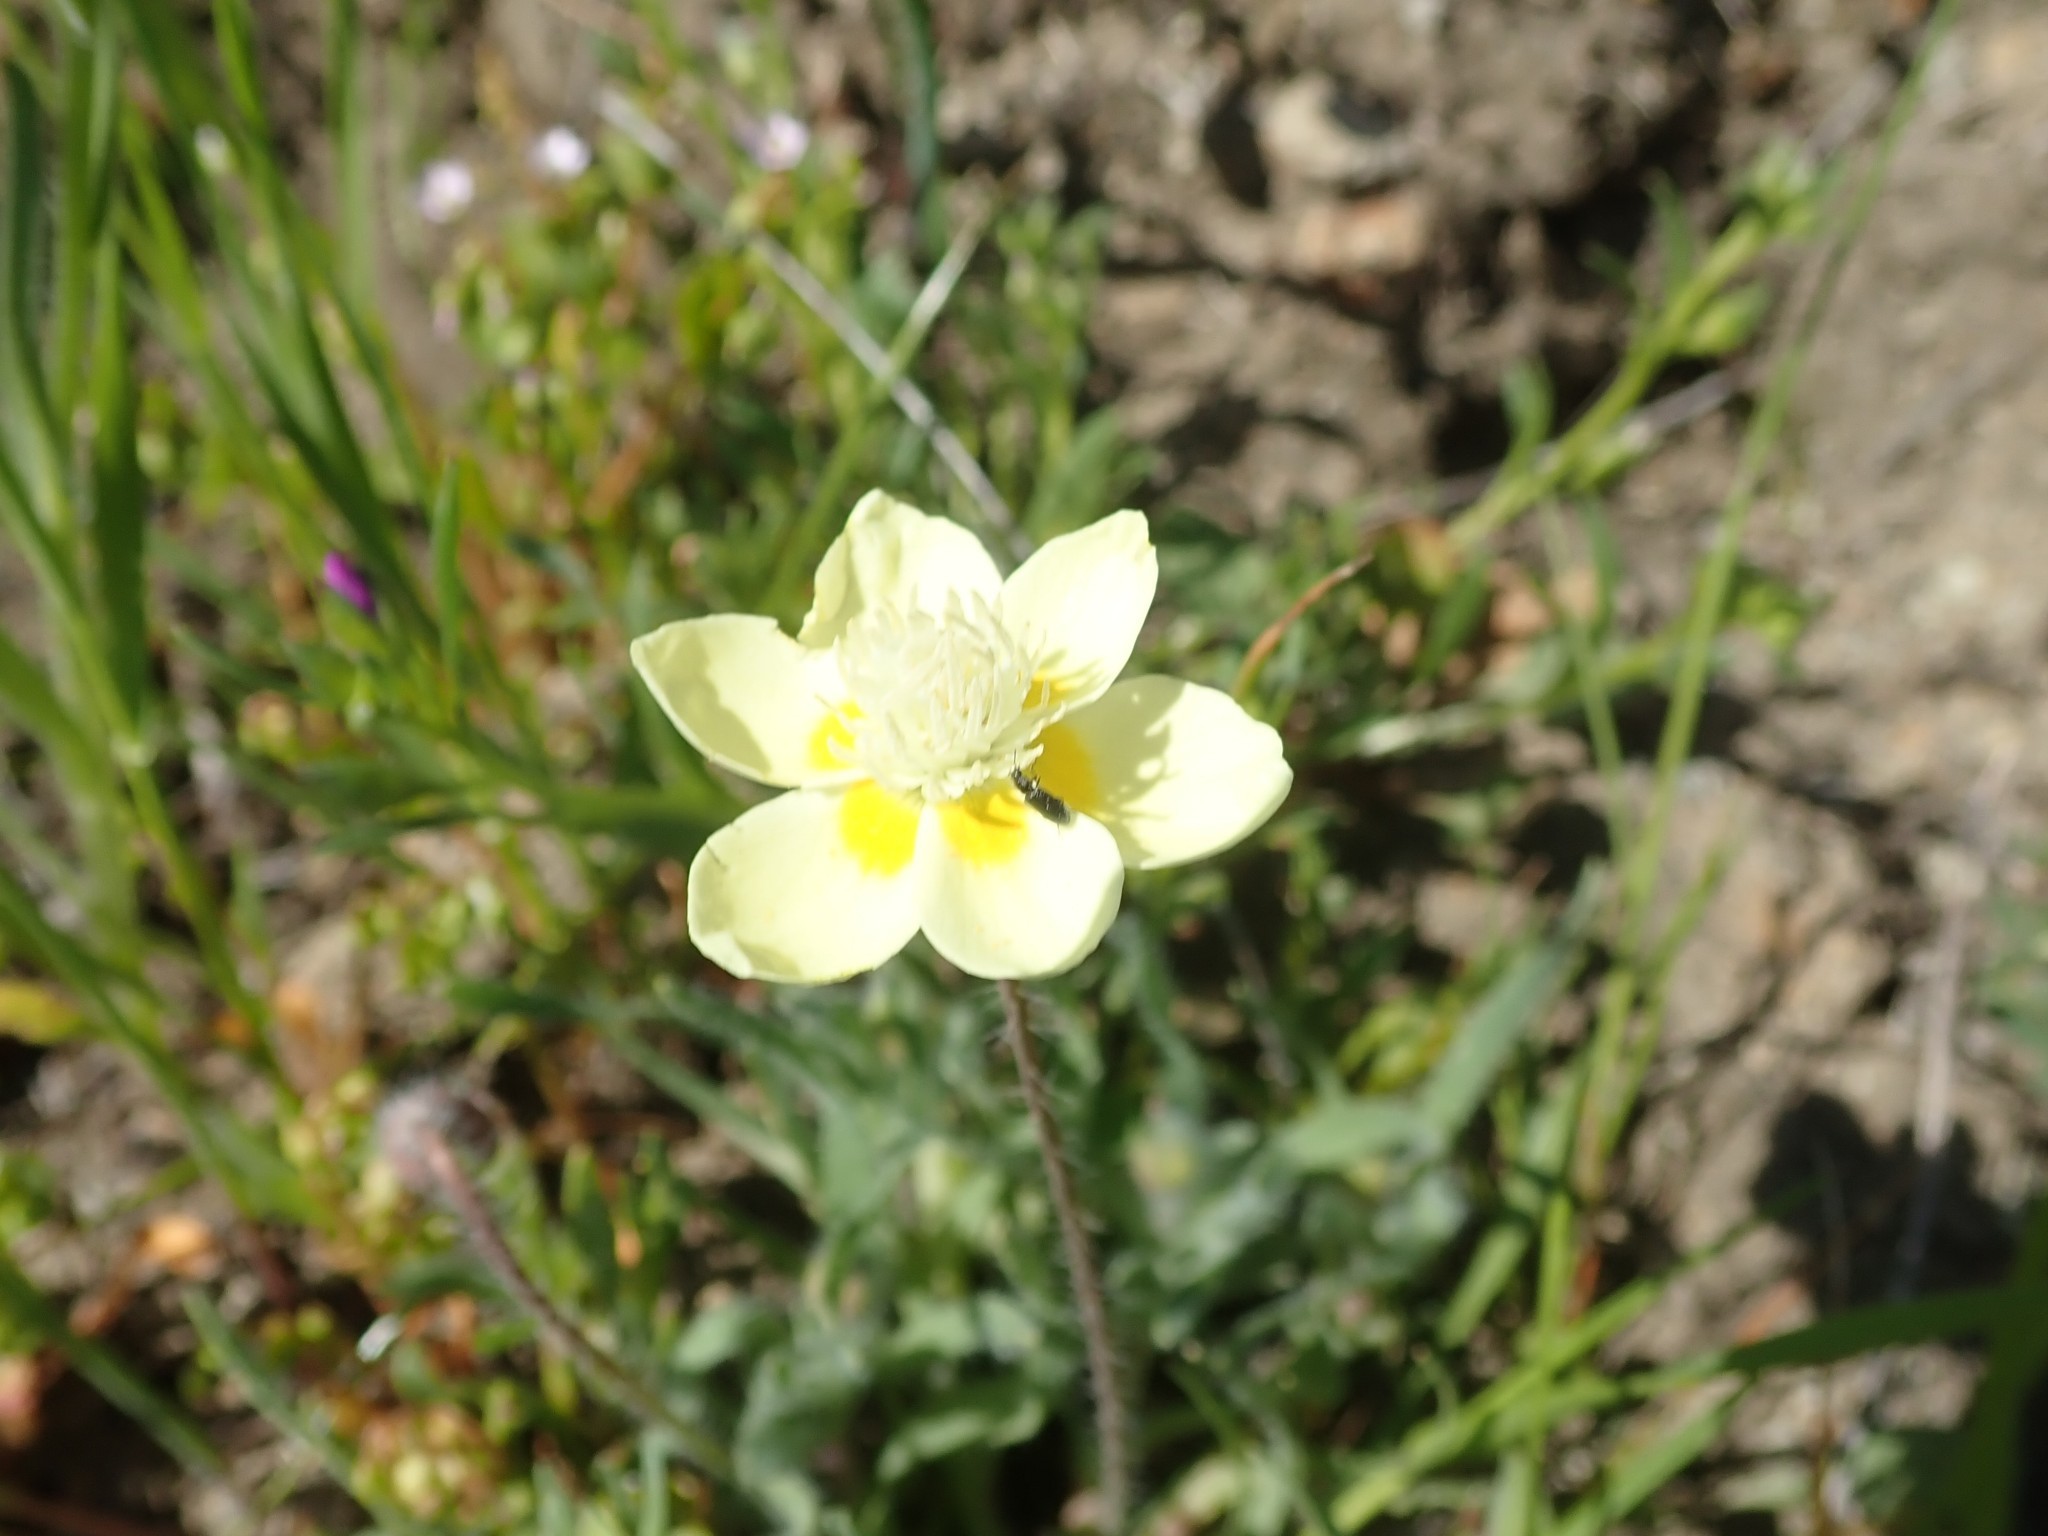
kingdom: Plantae
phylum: Tracheophyta
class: Magnoliopsida
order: Ranunculales
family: Papaveraceae
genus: Platystemon
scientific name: Platystemon californicus
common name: Cream-cups
